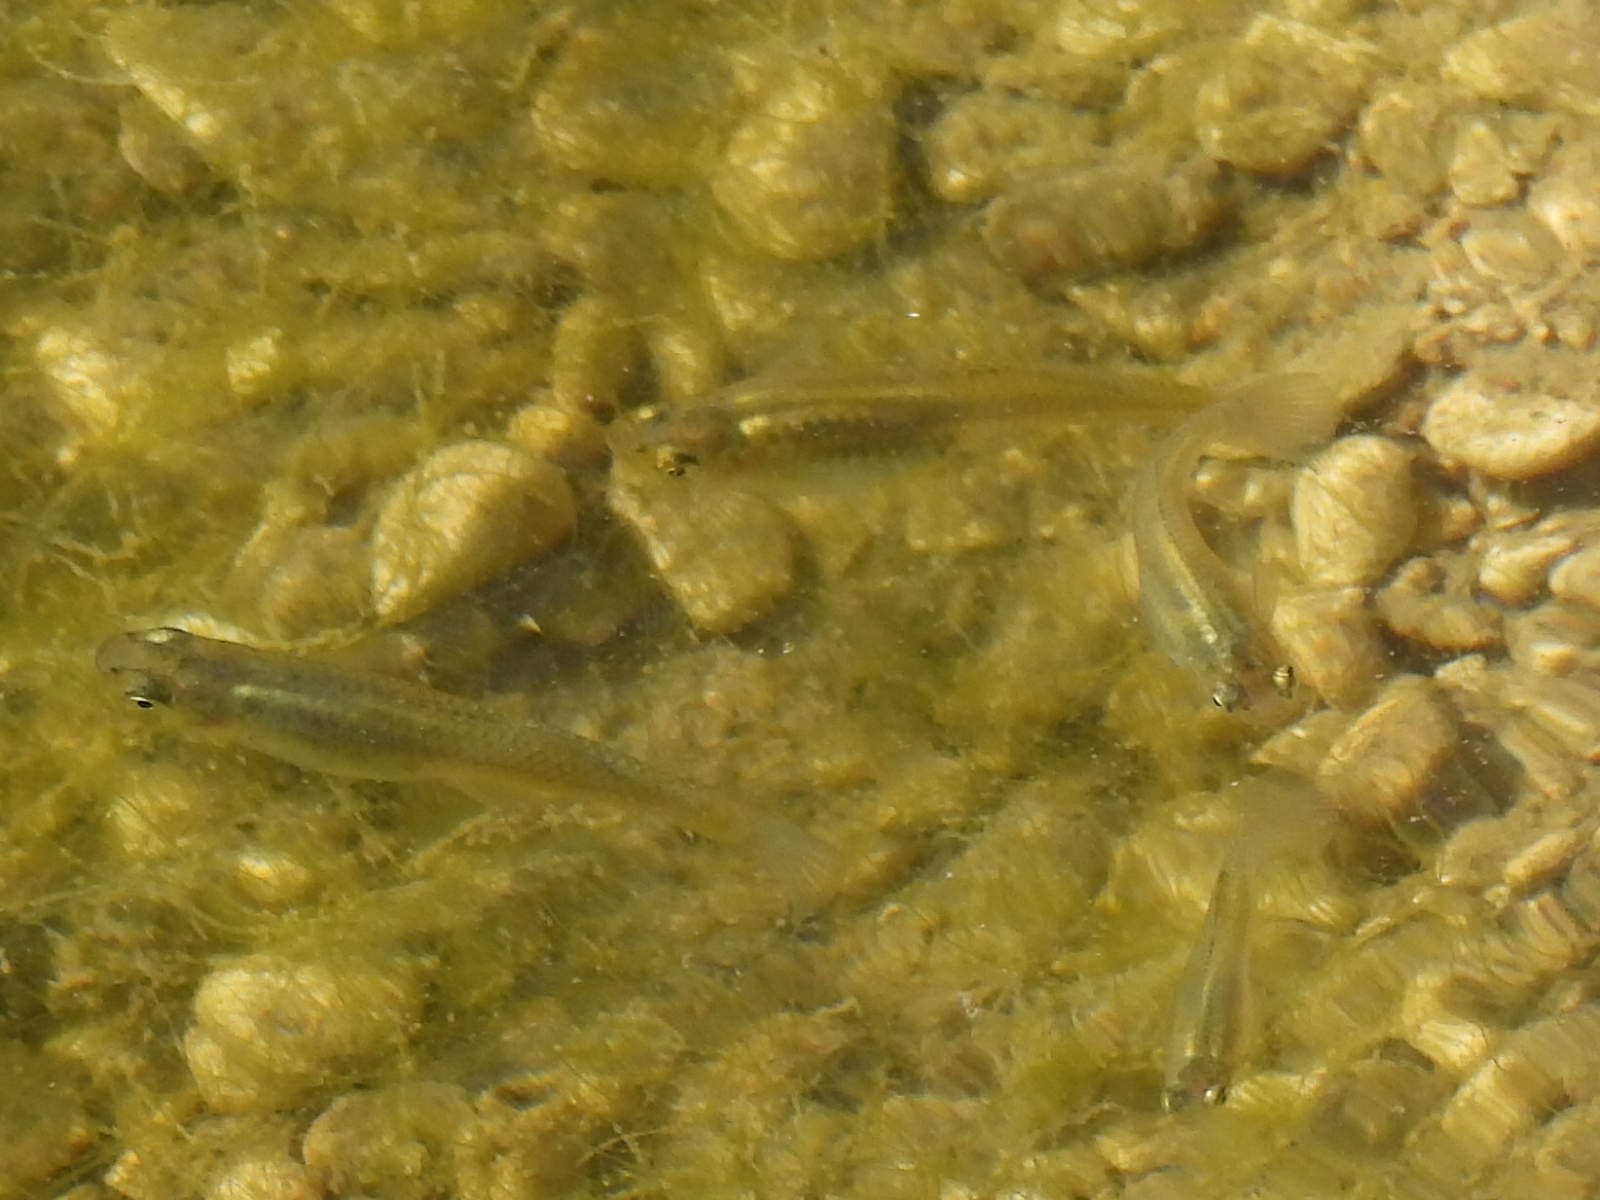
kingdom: Animalia
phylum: Chordata
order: Cyprinodontiformes
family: Poeciliidae
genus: Gambusia
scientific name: Gambusia affinis
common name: Mosquitofish
